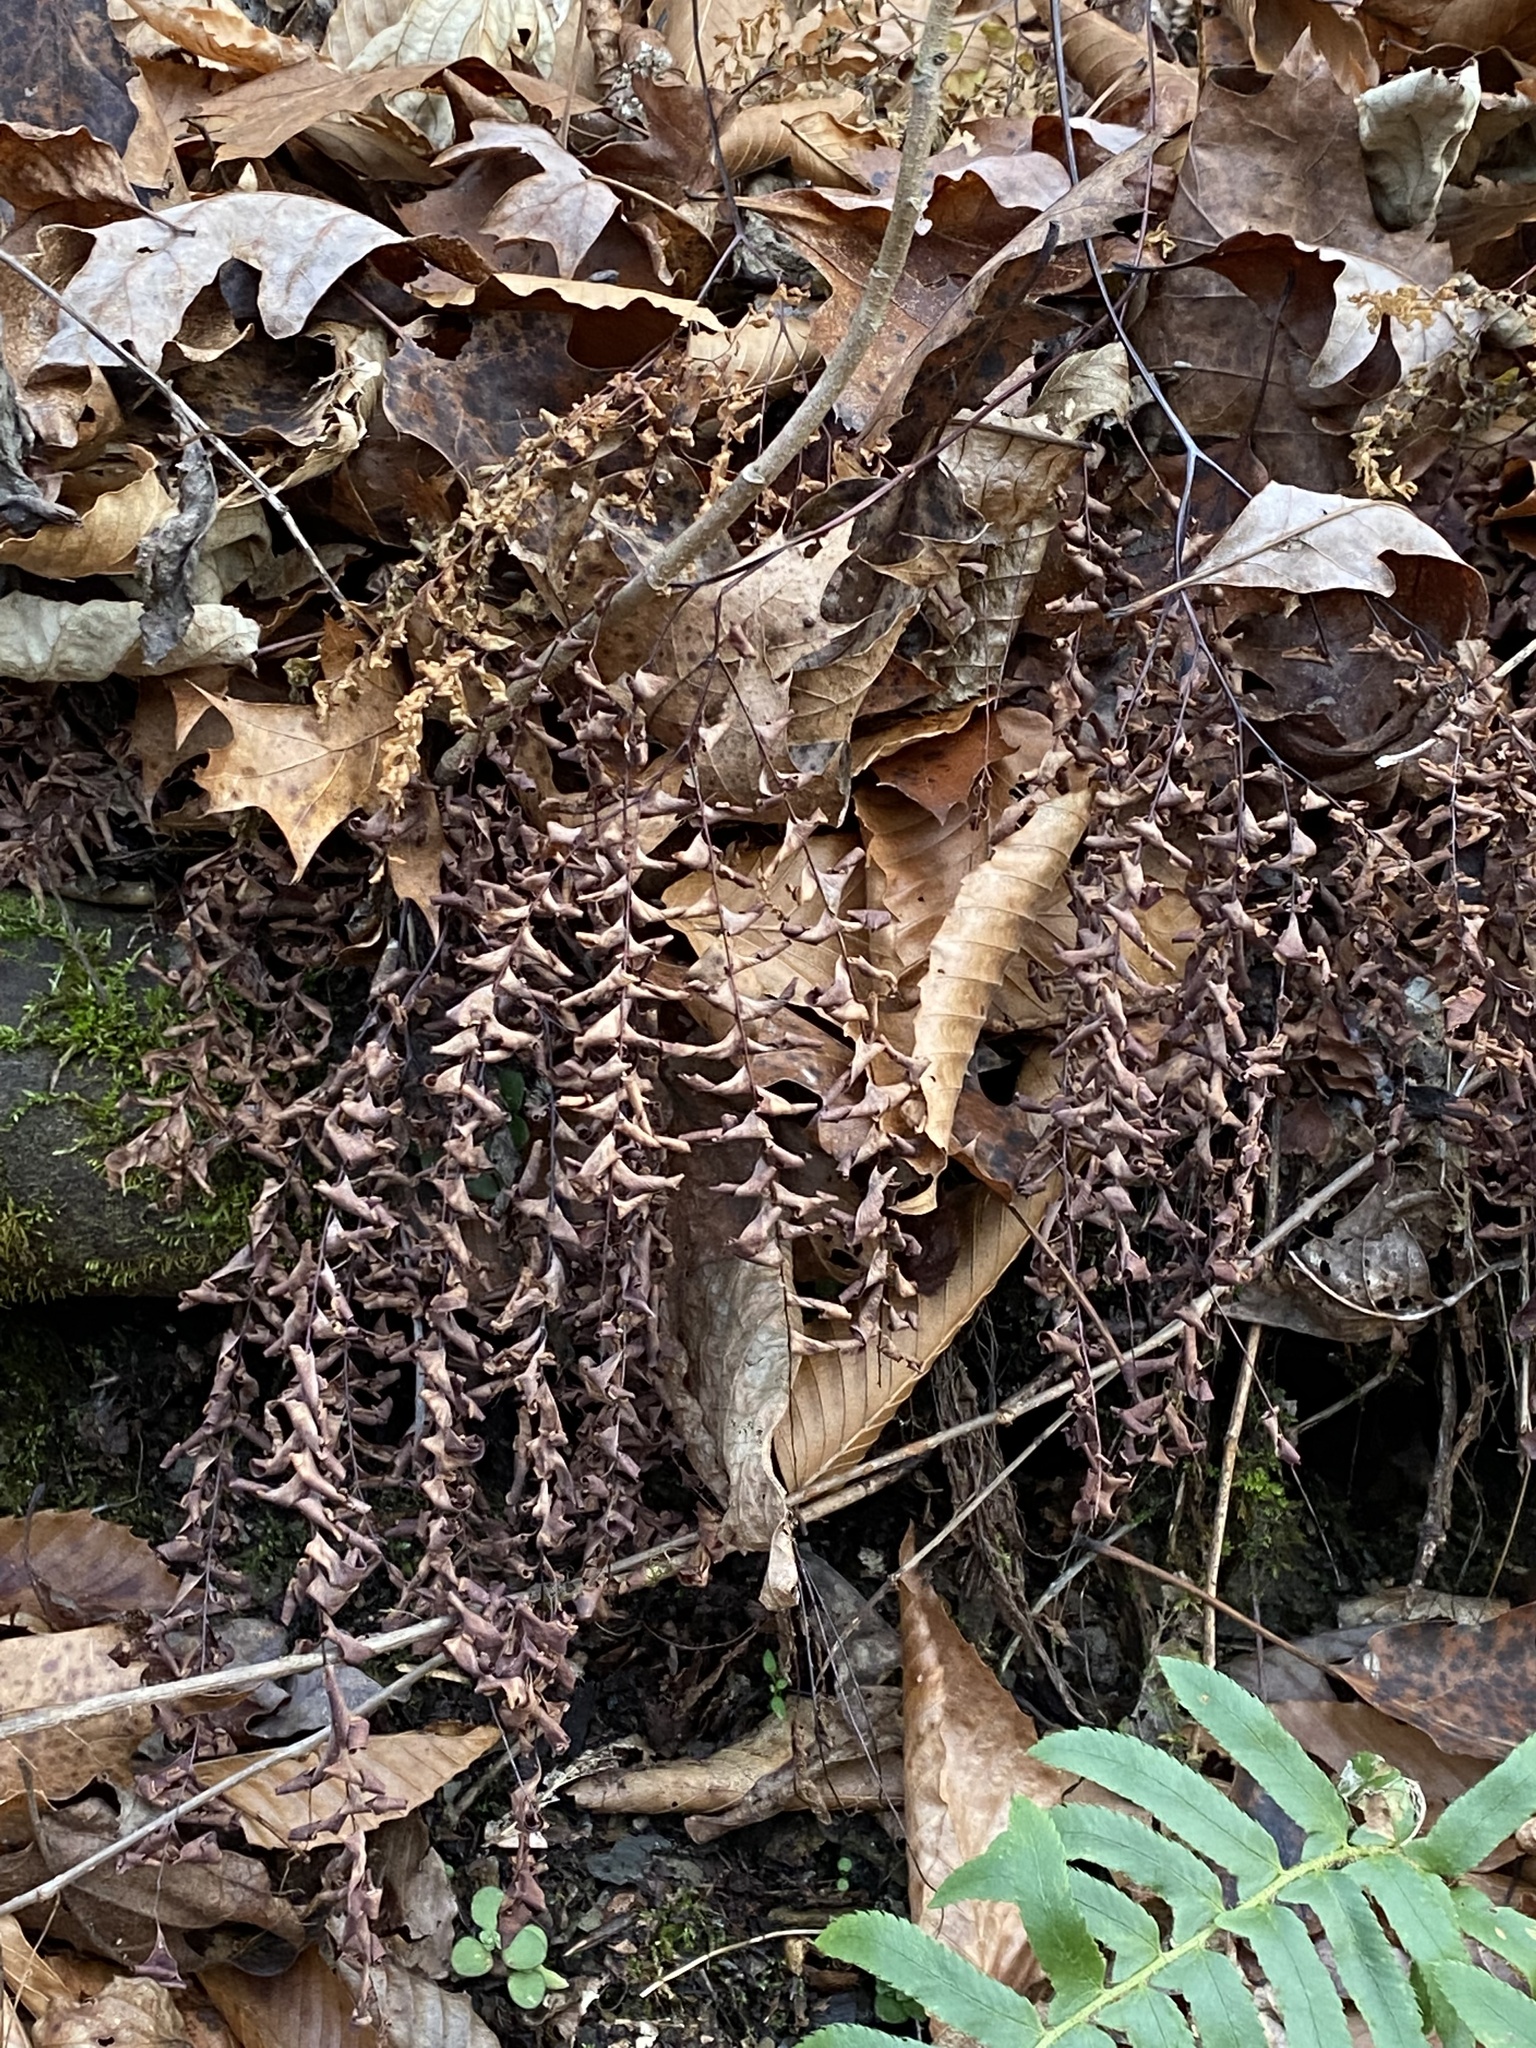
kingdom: Plantae
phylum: Tracheophyta
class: Polypodiopsida
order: Polypodiales
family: Pteridaceae
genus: Adiantum
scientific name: Adiantum pedatum
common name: Five-finger fern
